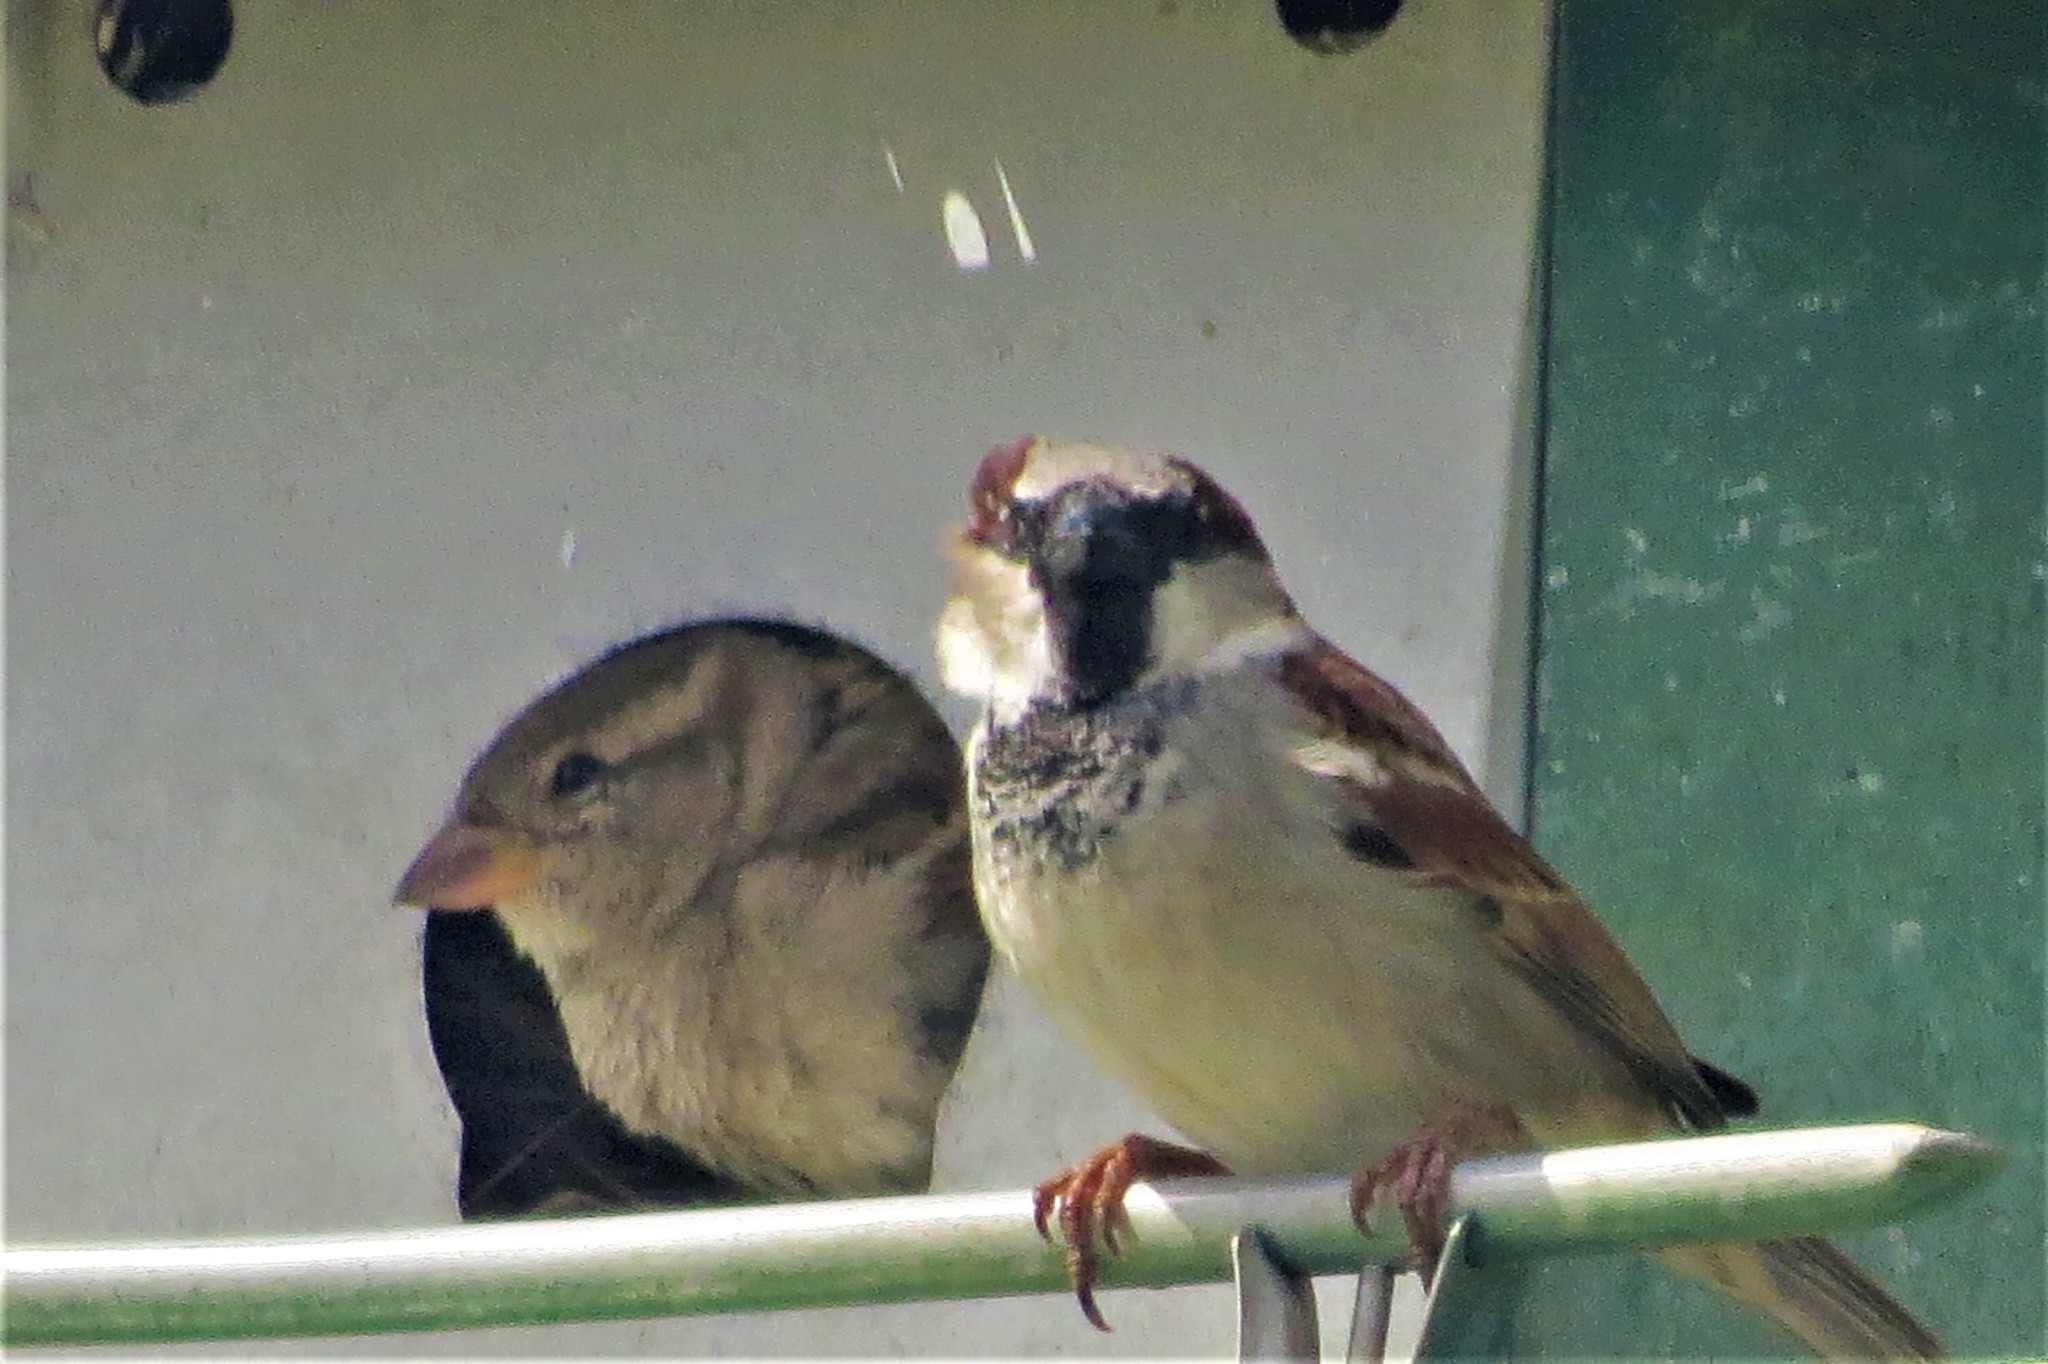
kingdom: Animalia
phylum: Chordata
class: Aves
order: Passeriformes
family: Passeridae
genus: Passer
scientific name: Passer domesticus
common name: House sparrow
